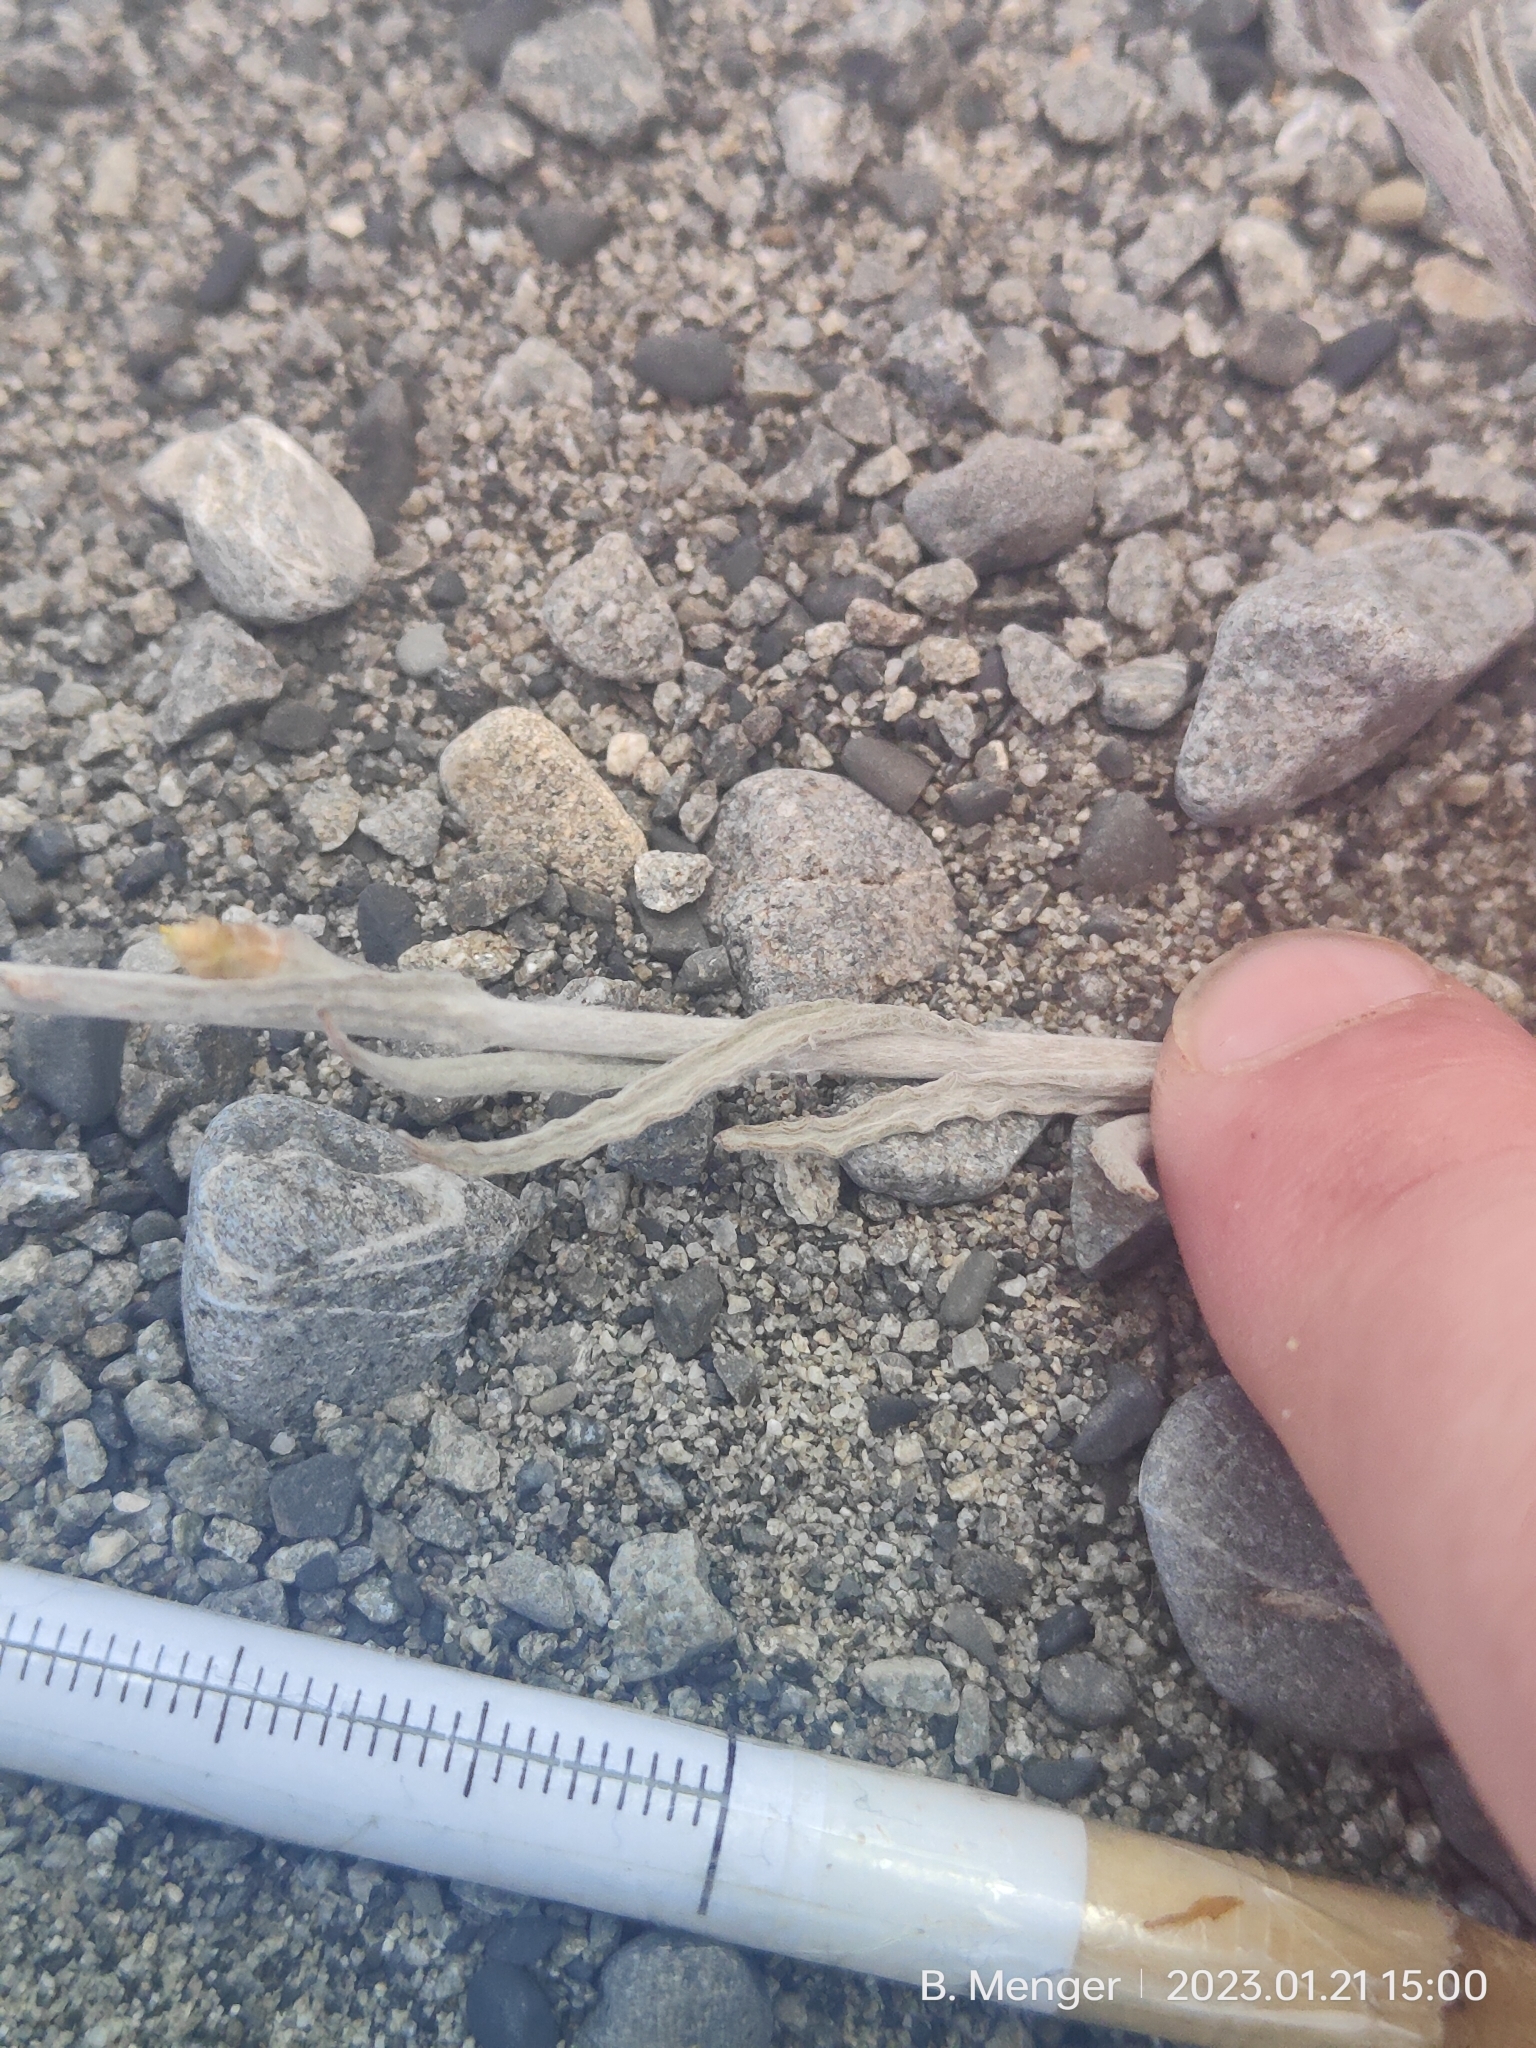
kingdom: Plantae
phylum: Tracheophyta
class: Magnoliopsida
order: Asterales
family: Asteraceae
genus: Euchiton
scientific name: Euchiton sphaericus
